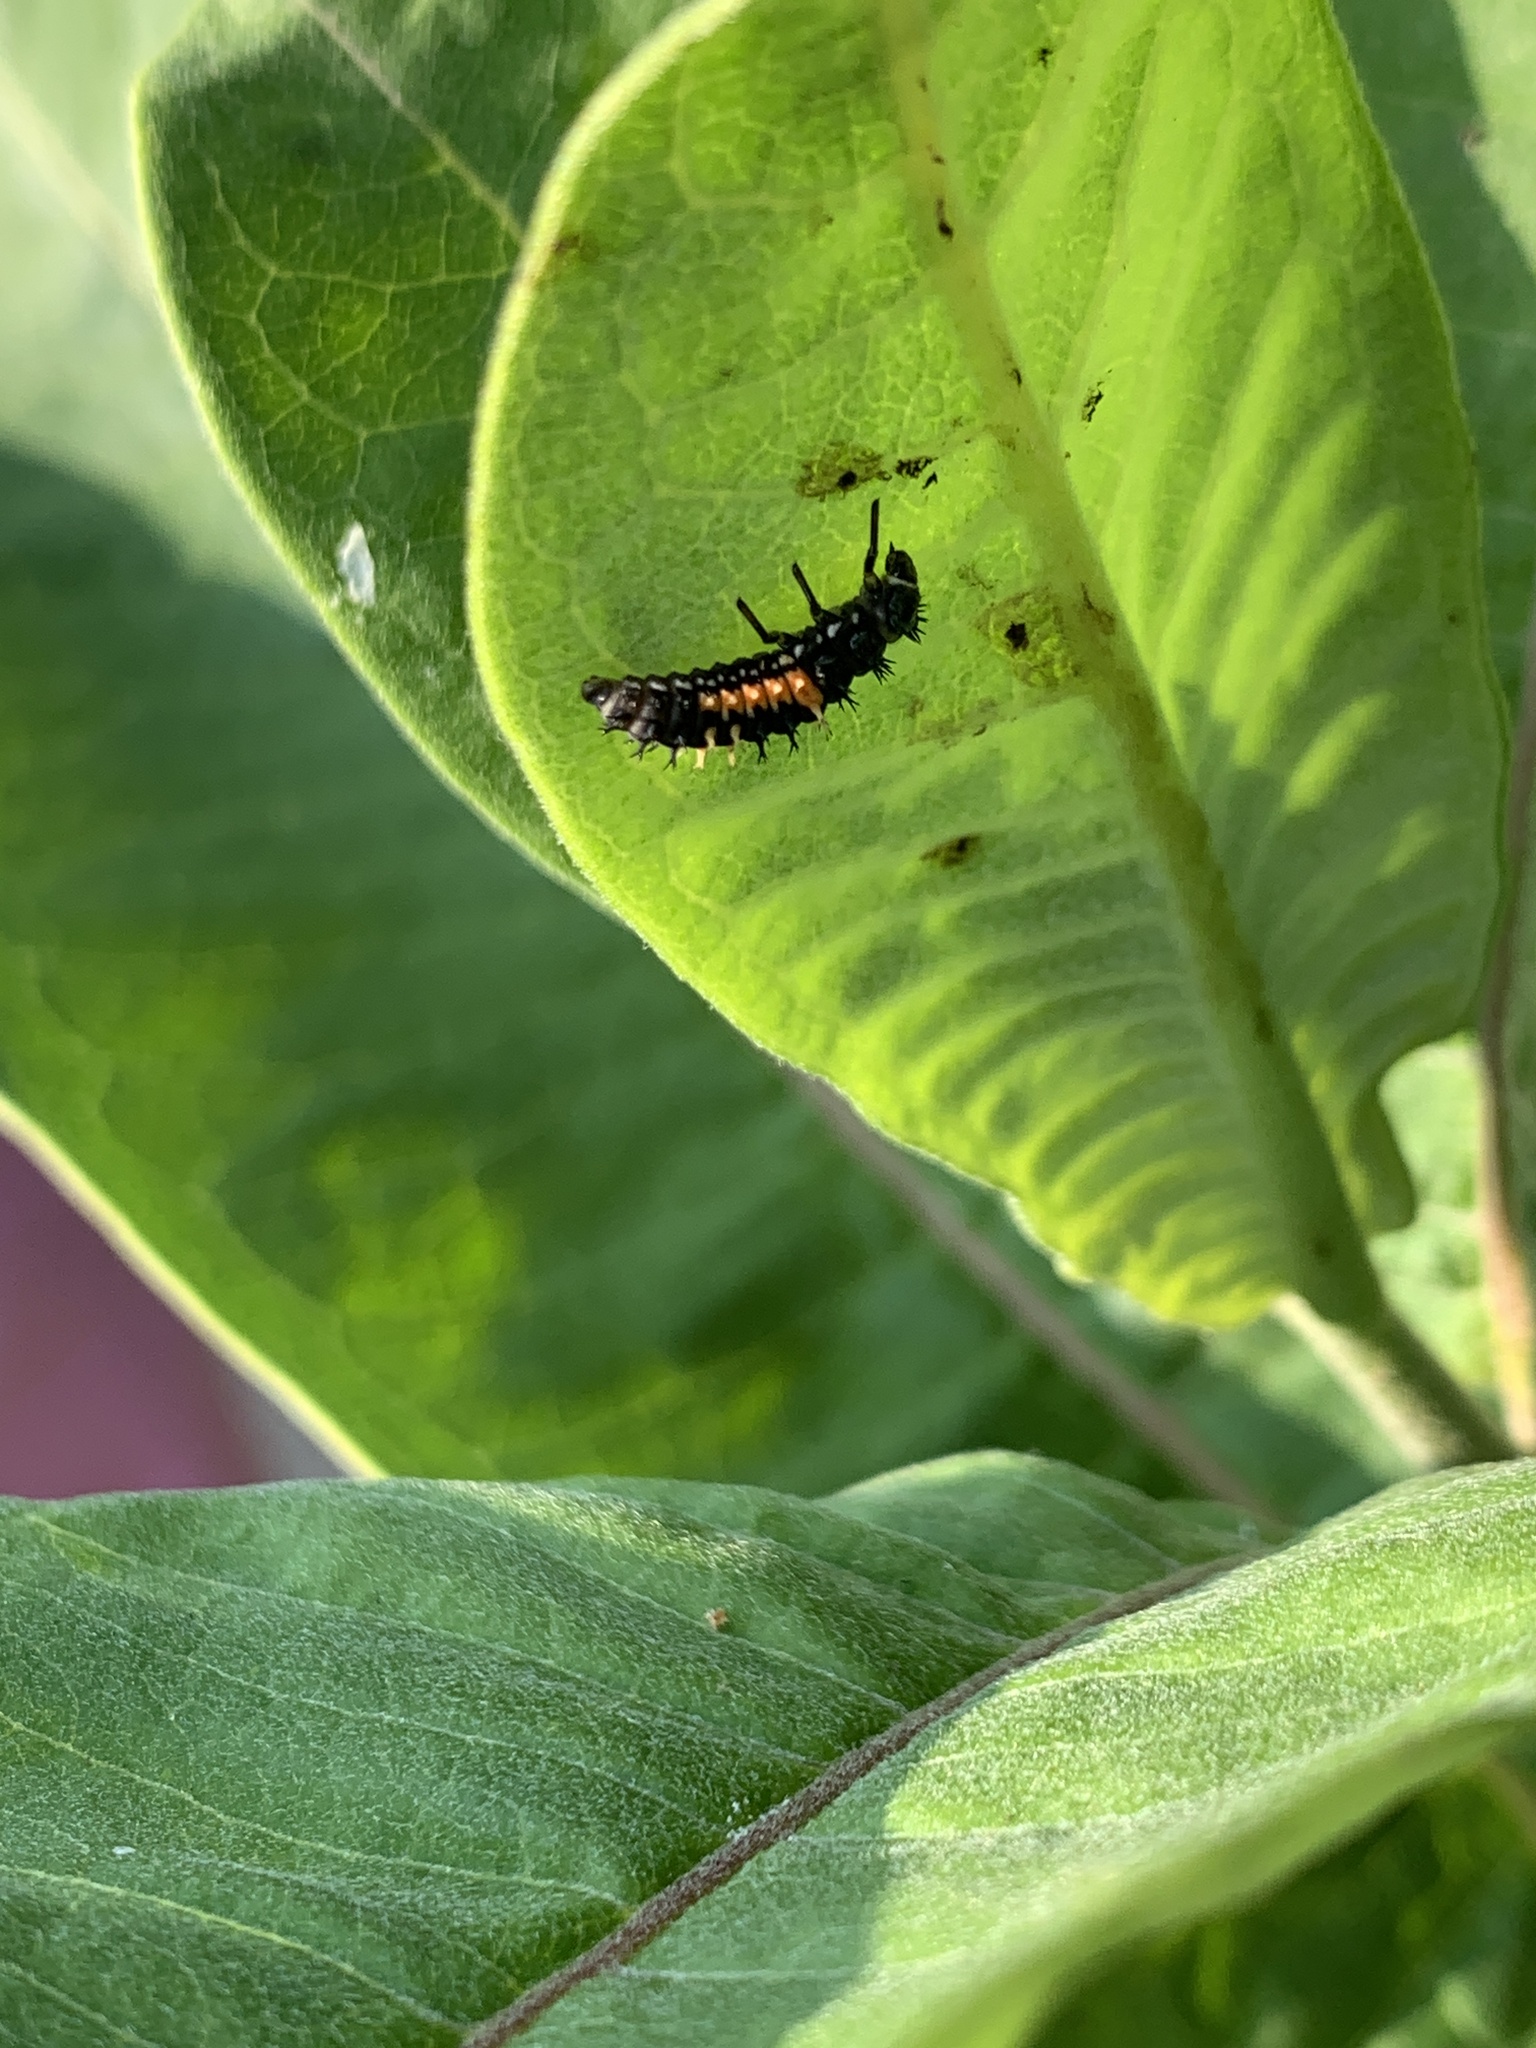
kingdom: Animalia
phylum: Arthropoda
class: Insecta
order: Coleoptera
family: Coccinellidae
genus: Harmonia
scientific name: Harmonia axyridis
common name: Harlequin ladybird
